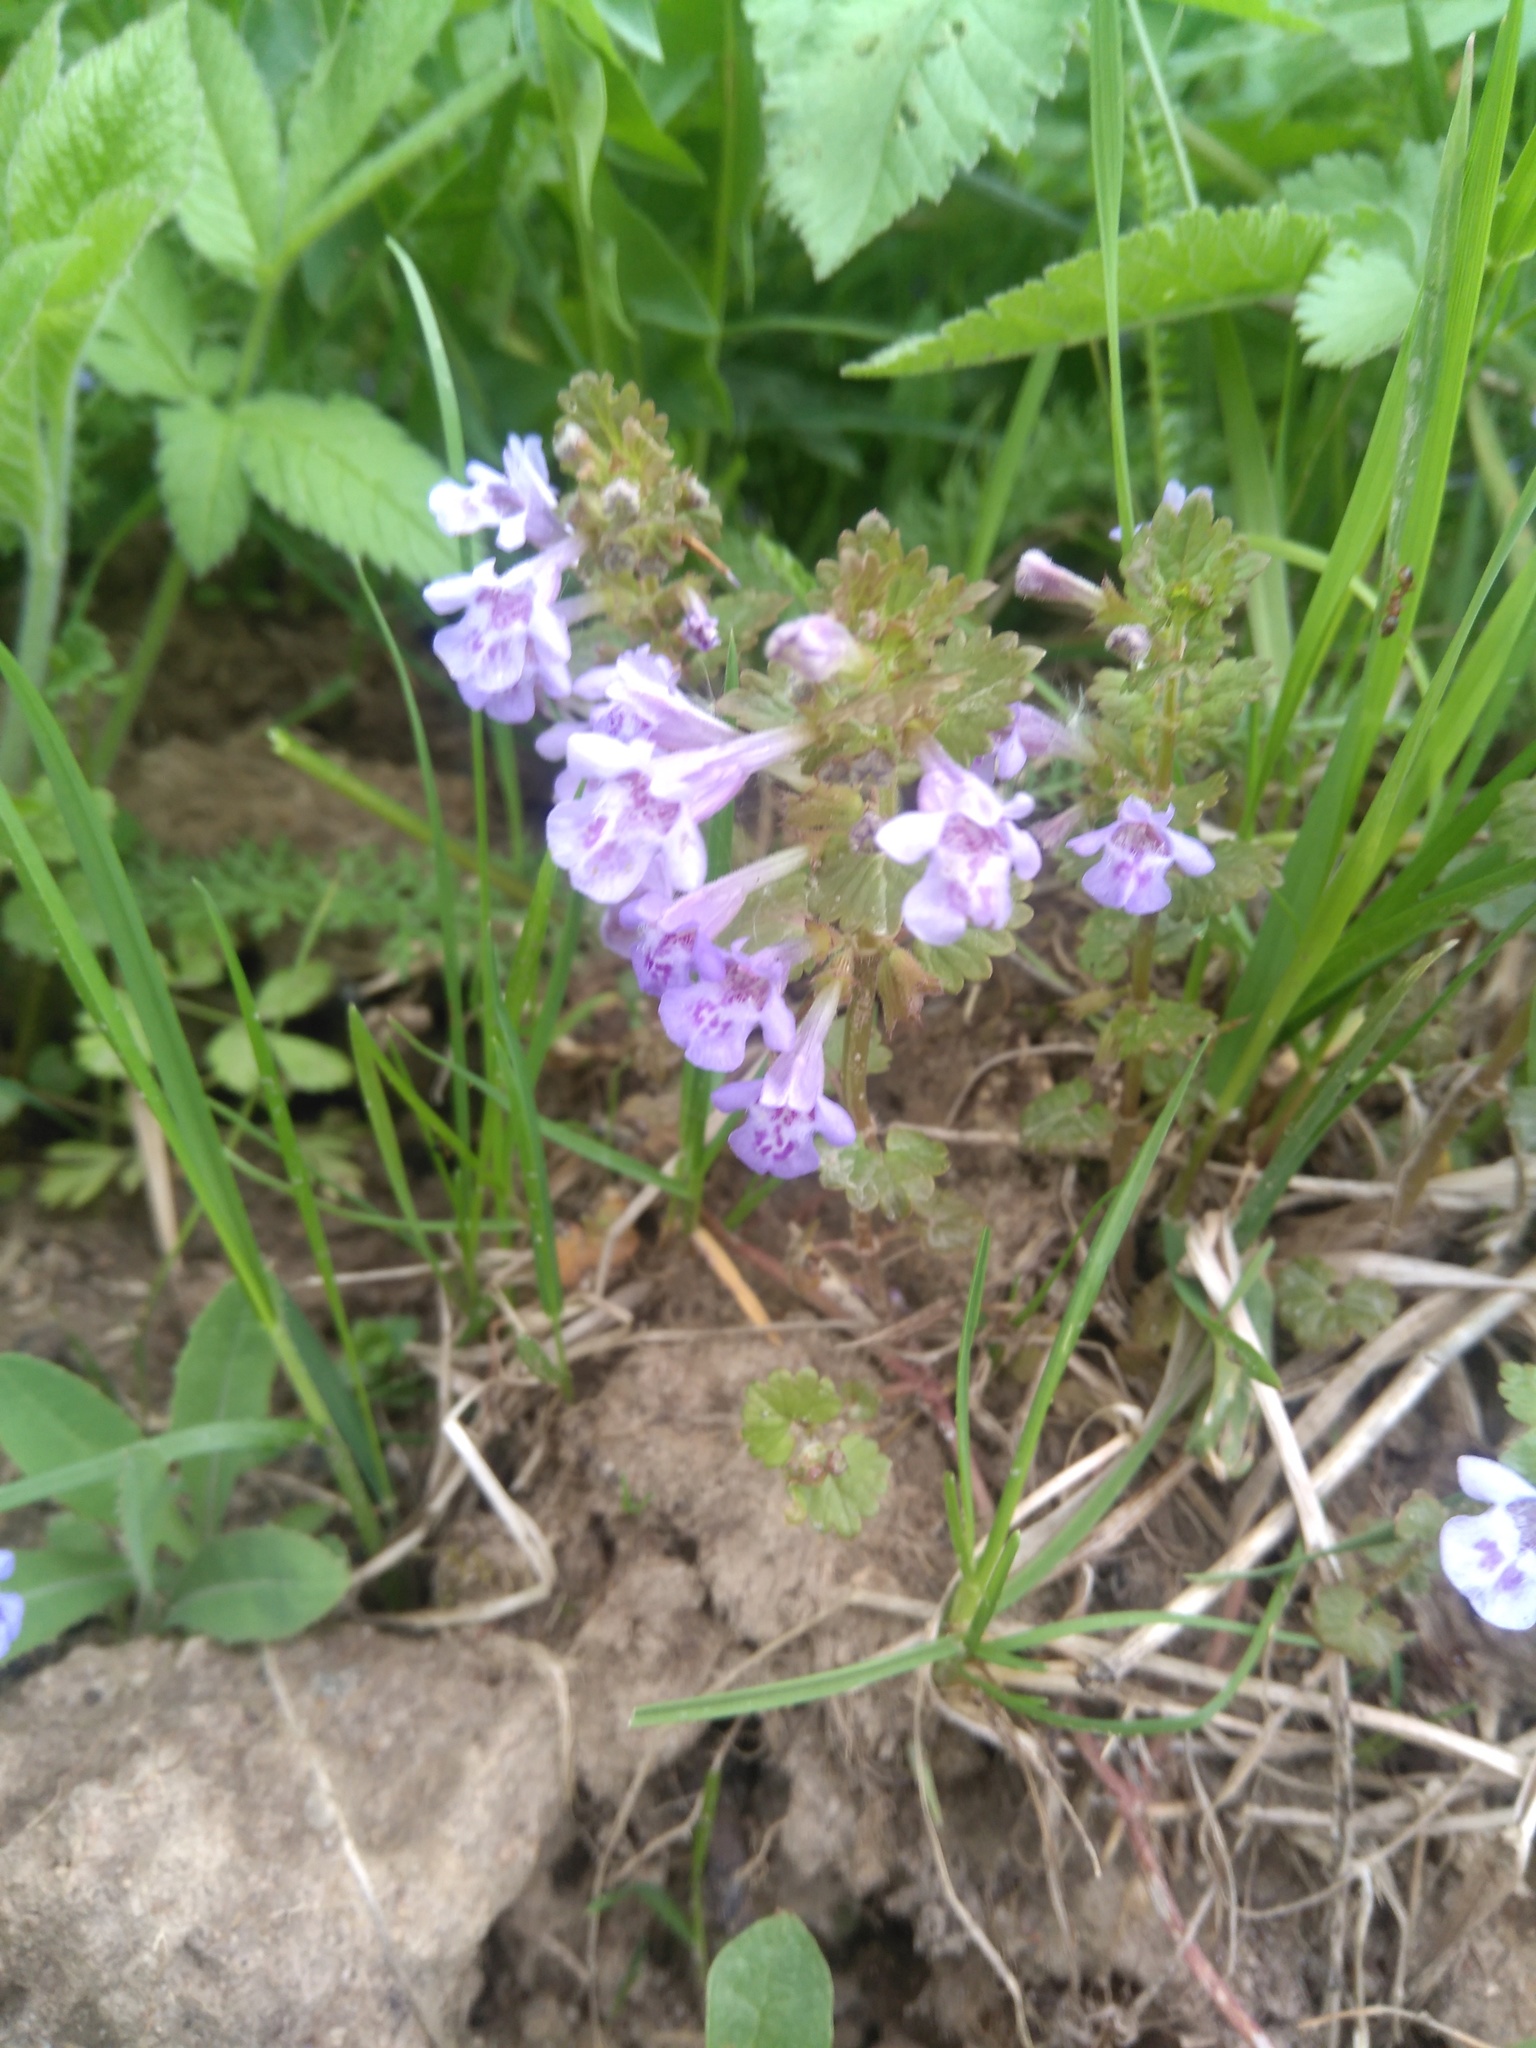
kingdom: Plantae
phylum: Tracheophyta
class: Magnoliopsida
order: Lamiales
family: Lamiaceae
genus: Glechoma
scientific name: Glechoma hederacea
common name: Ground ivy
